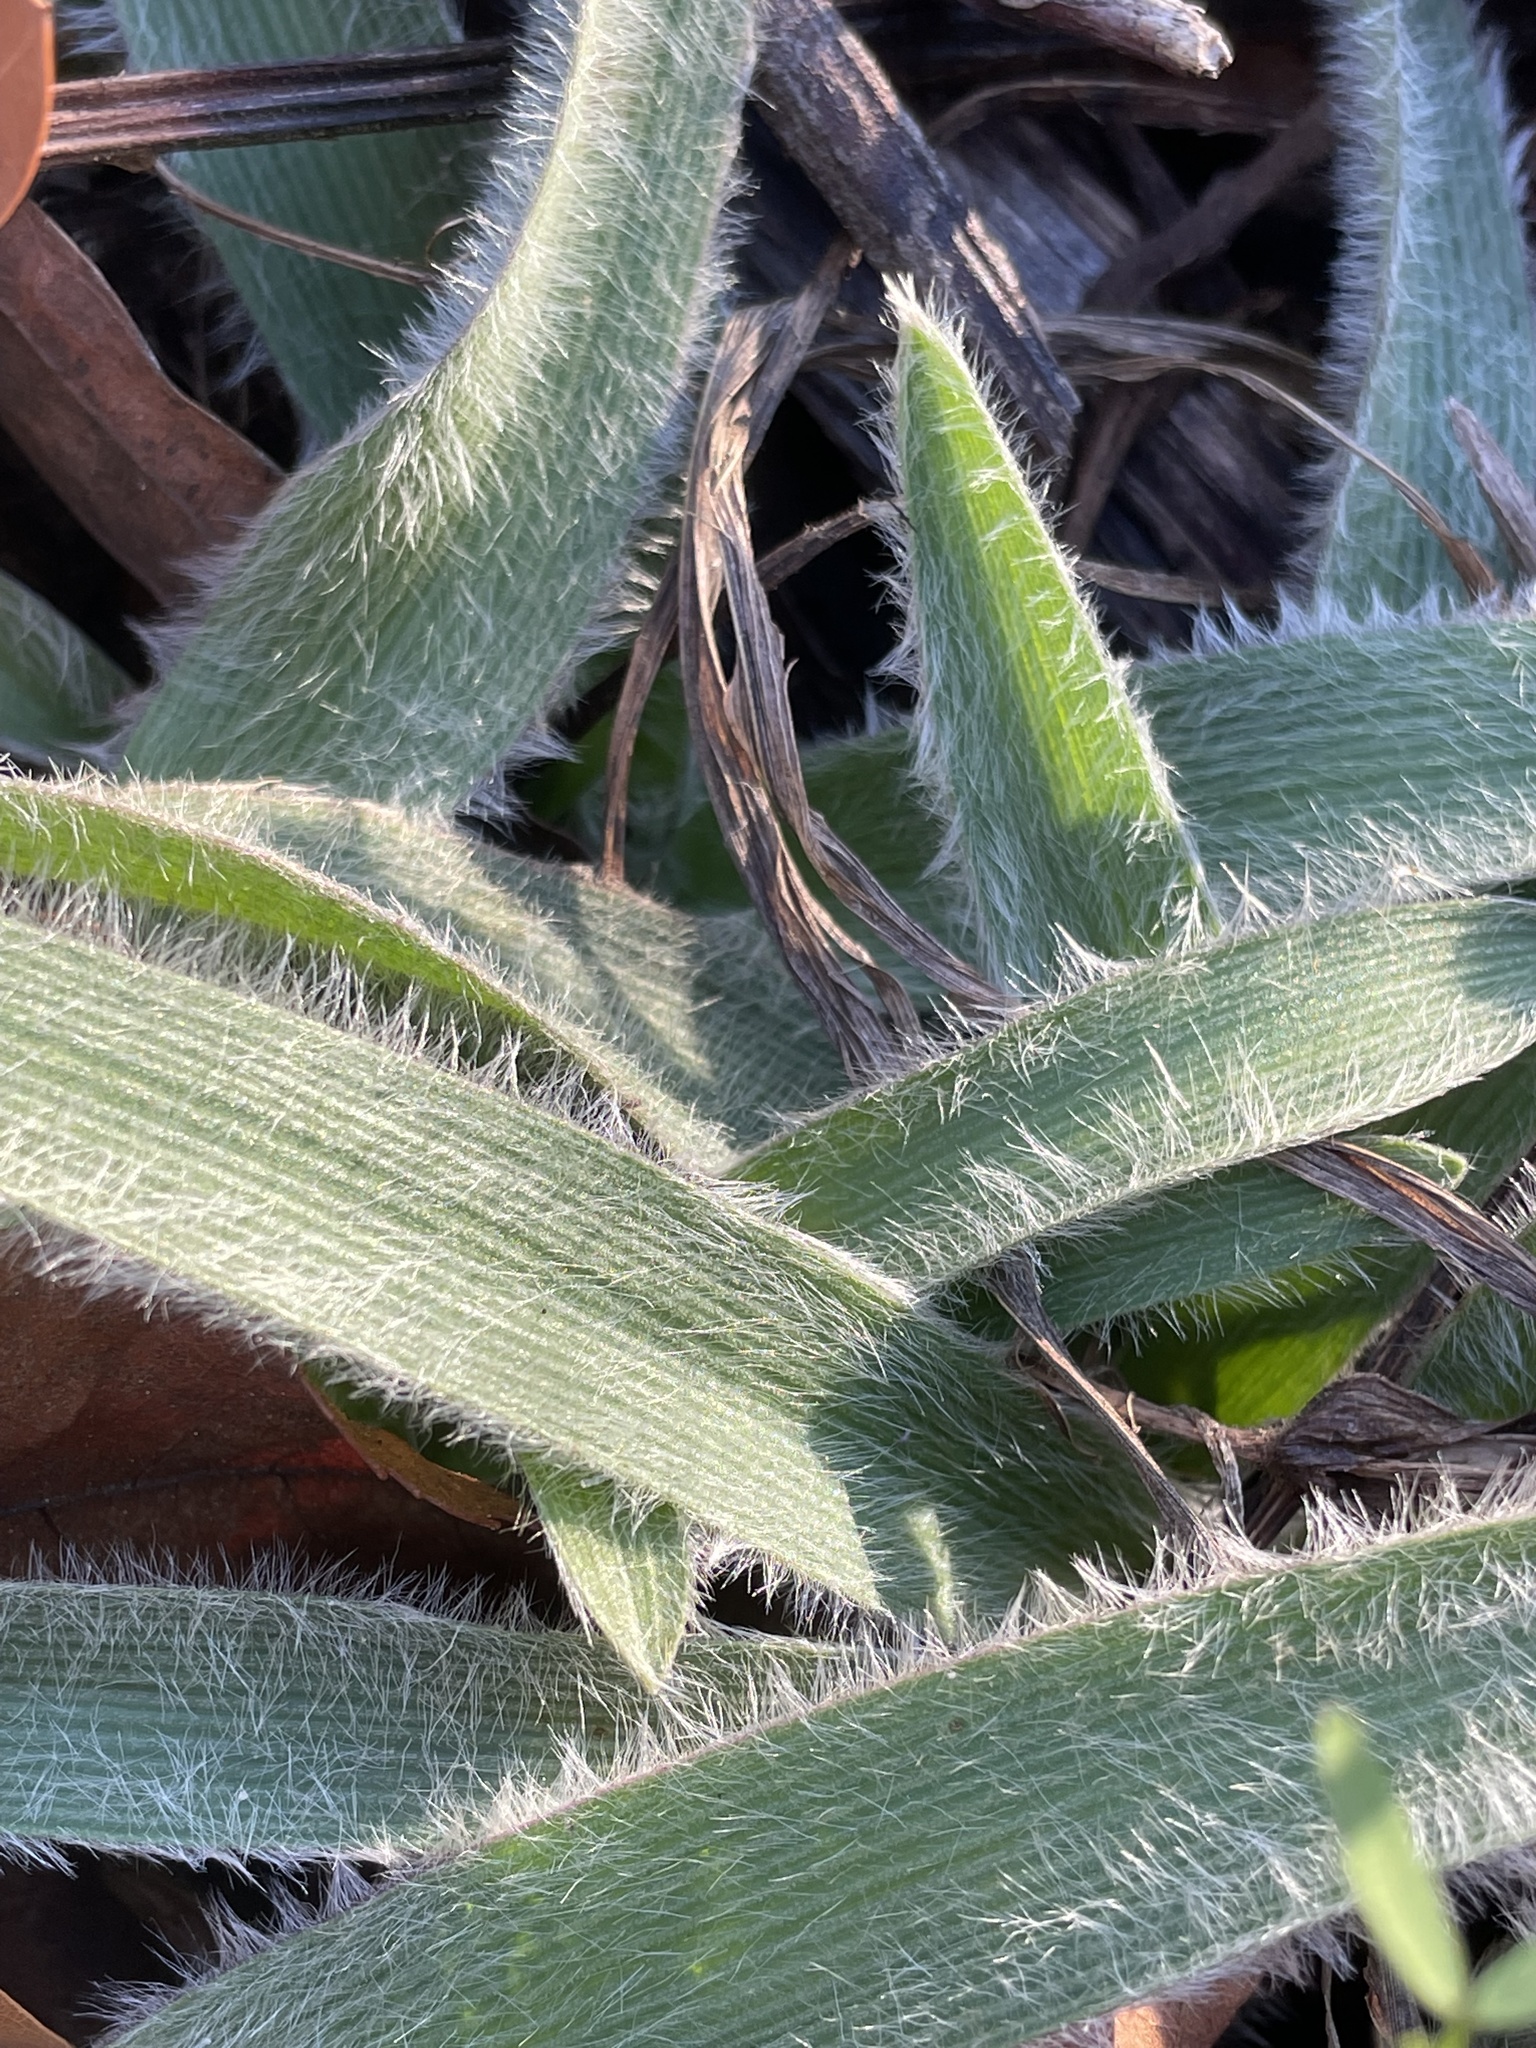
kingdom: Plantae
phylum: Tracheophyta
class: Liliopsida
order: Commelinales
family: Commelinaceae
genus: Tradescantia
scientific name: Tradescantia reverchonii
